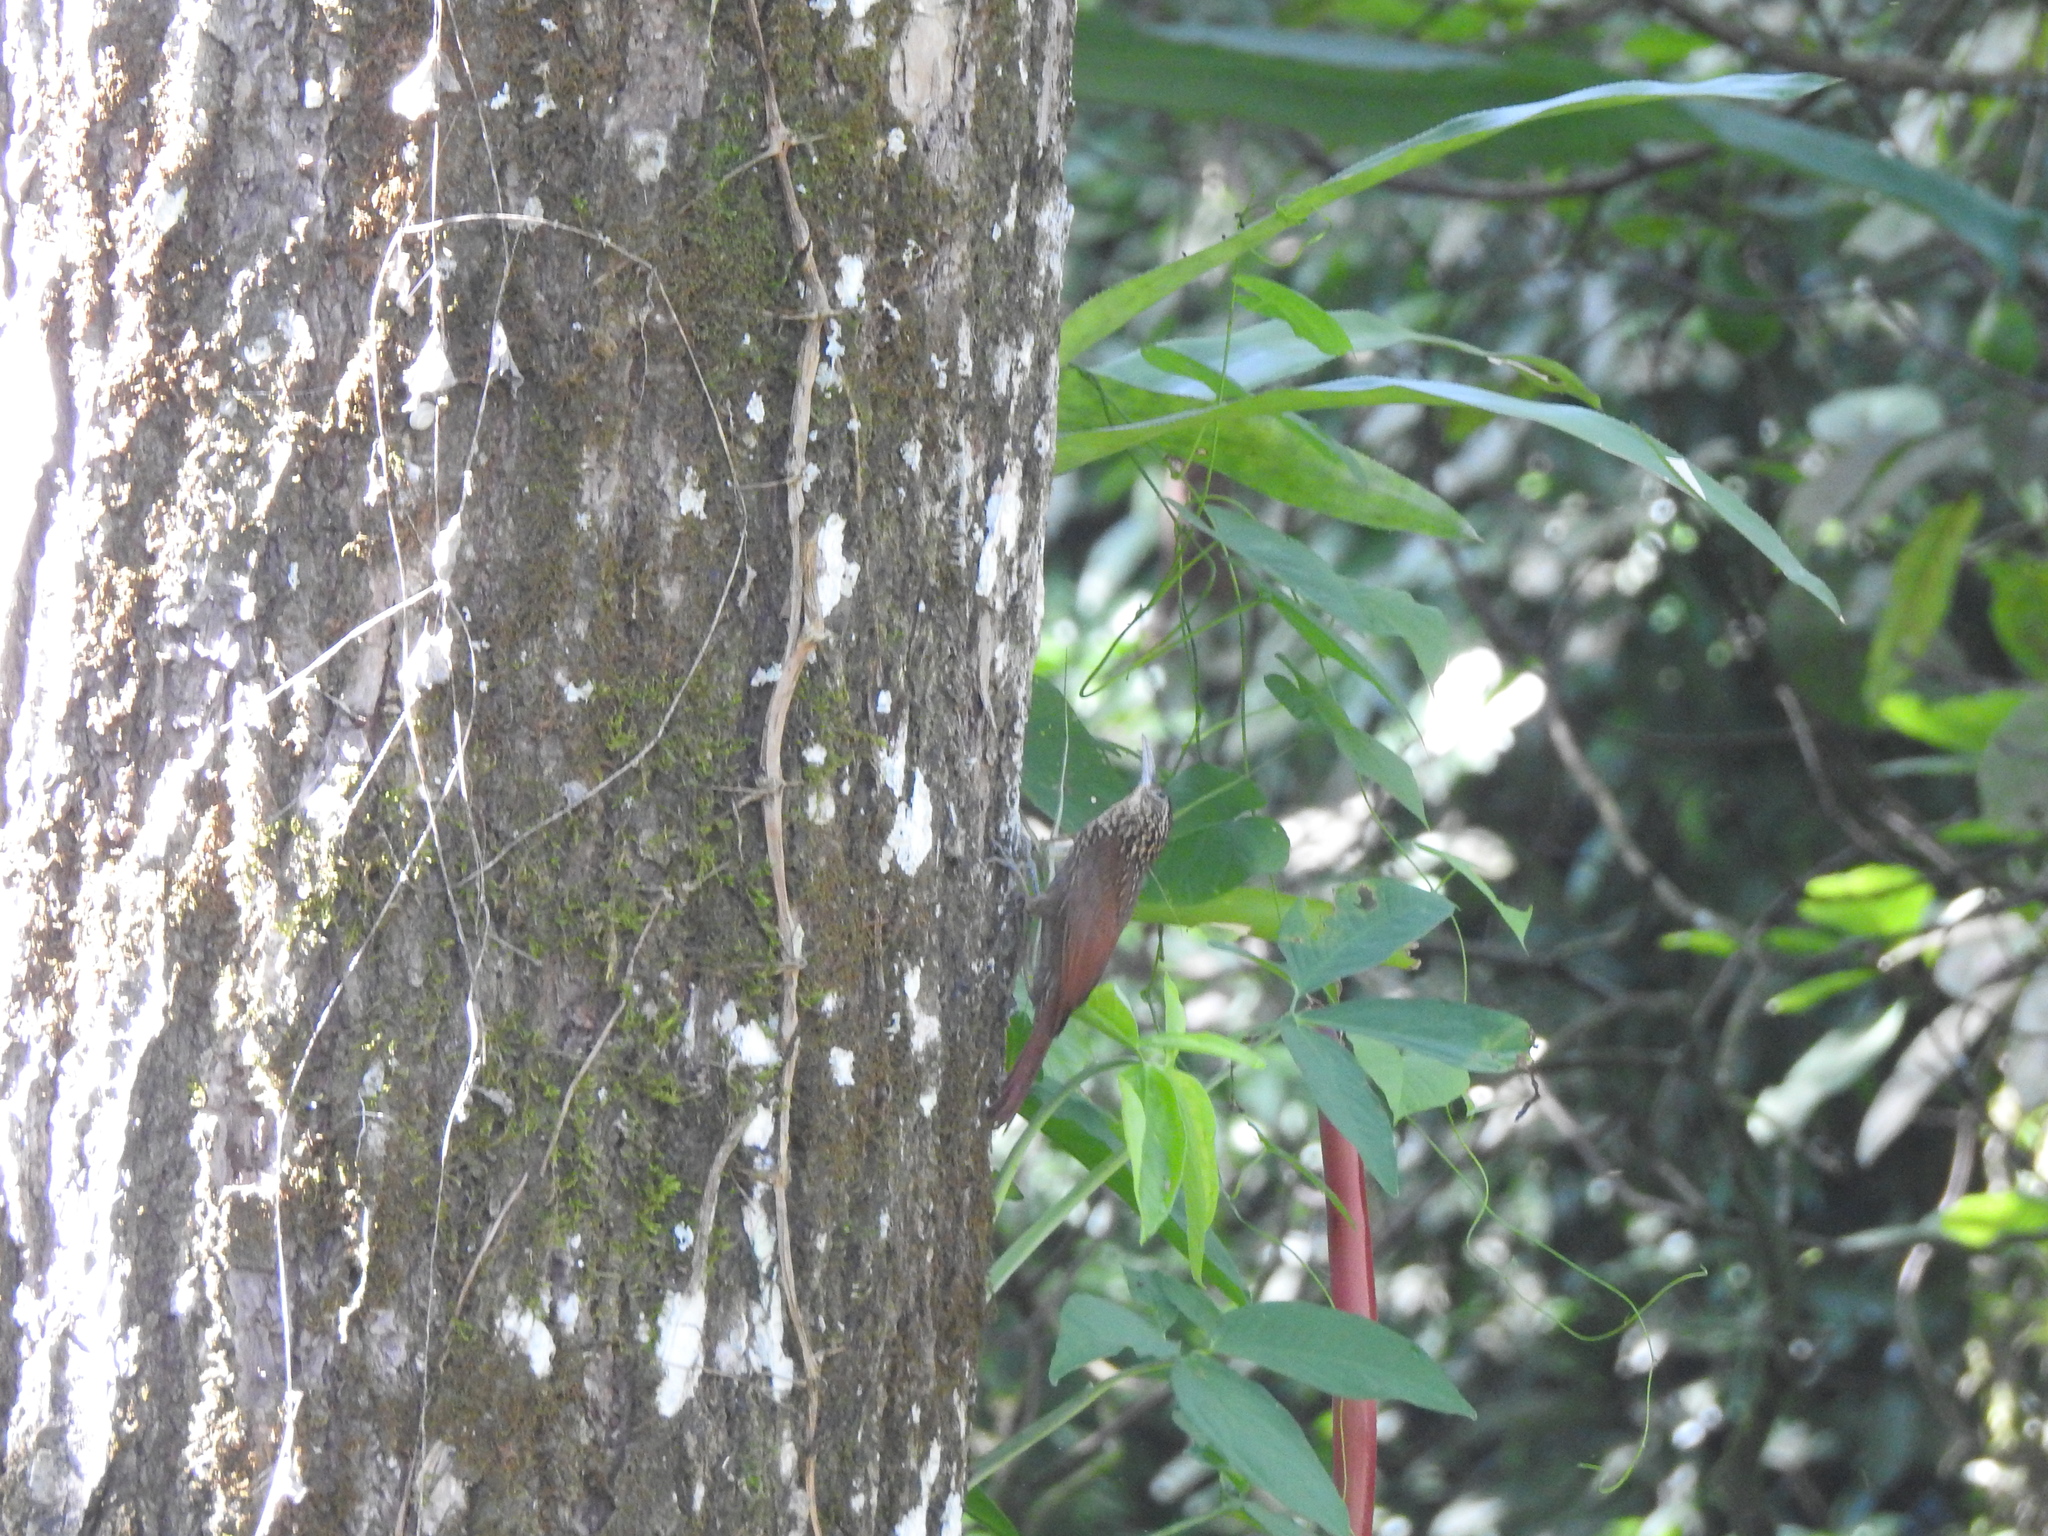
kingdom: Animalia
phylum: Chordata
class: Aves
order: Passeriformes
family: Furnariidae
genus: Lepidocolaptes
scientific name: Lepidocolaptes souleyetii
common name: Streak-headed woodcreeper
